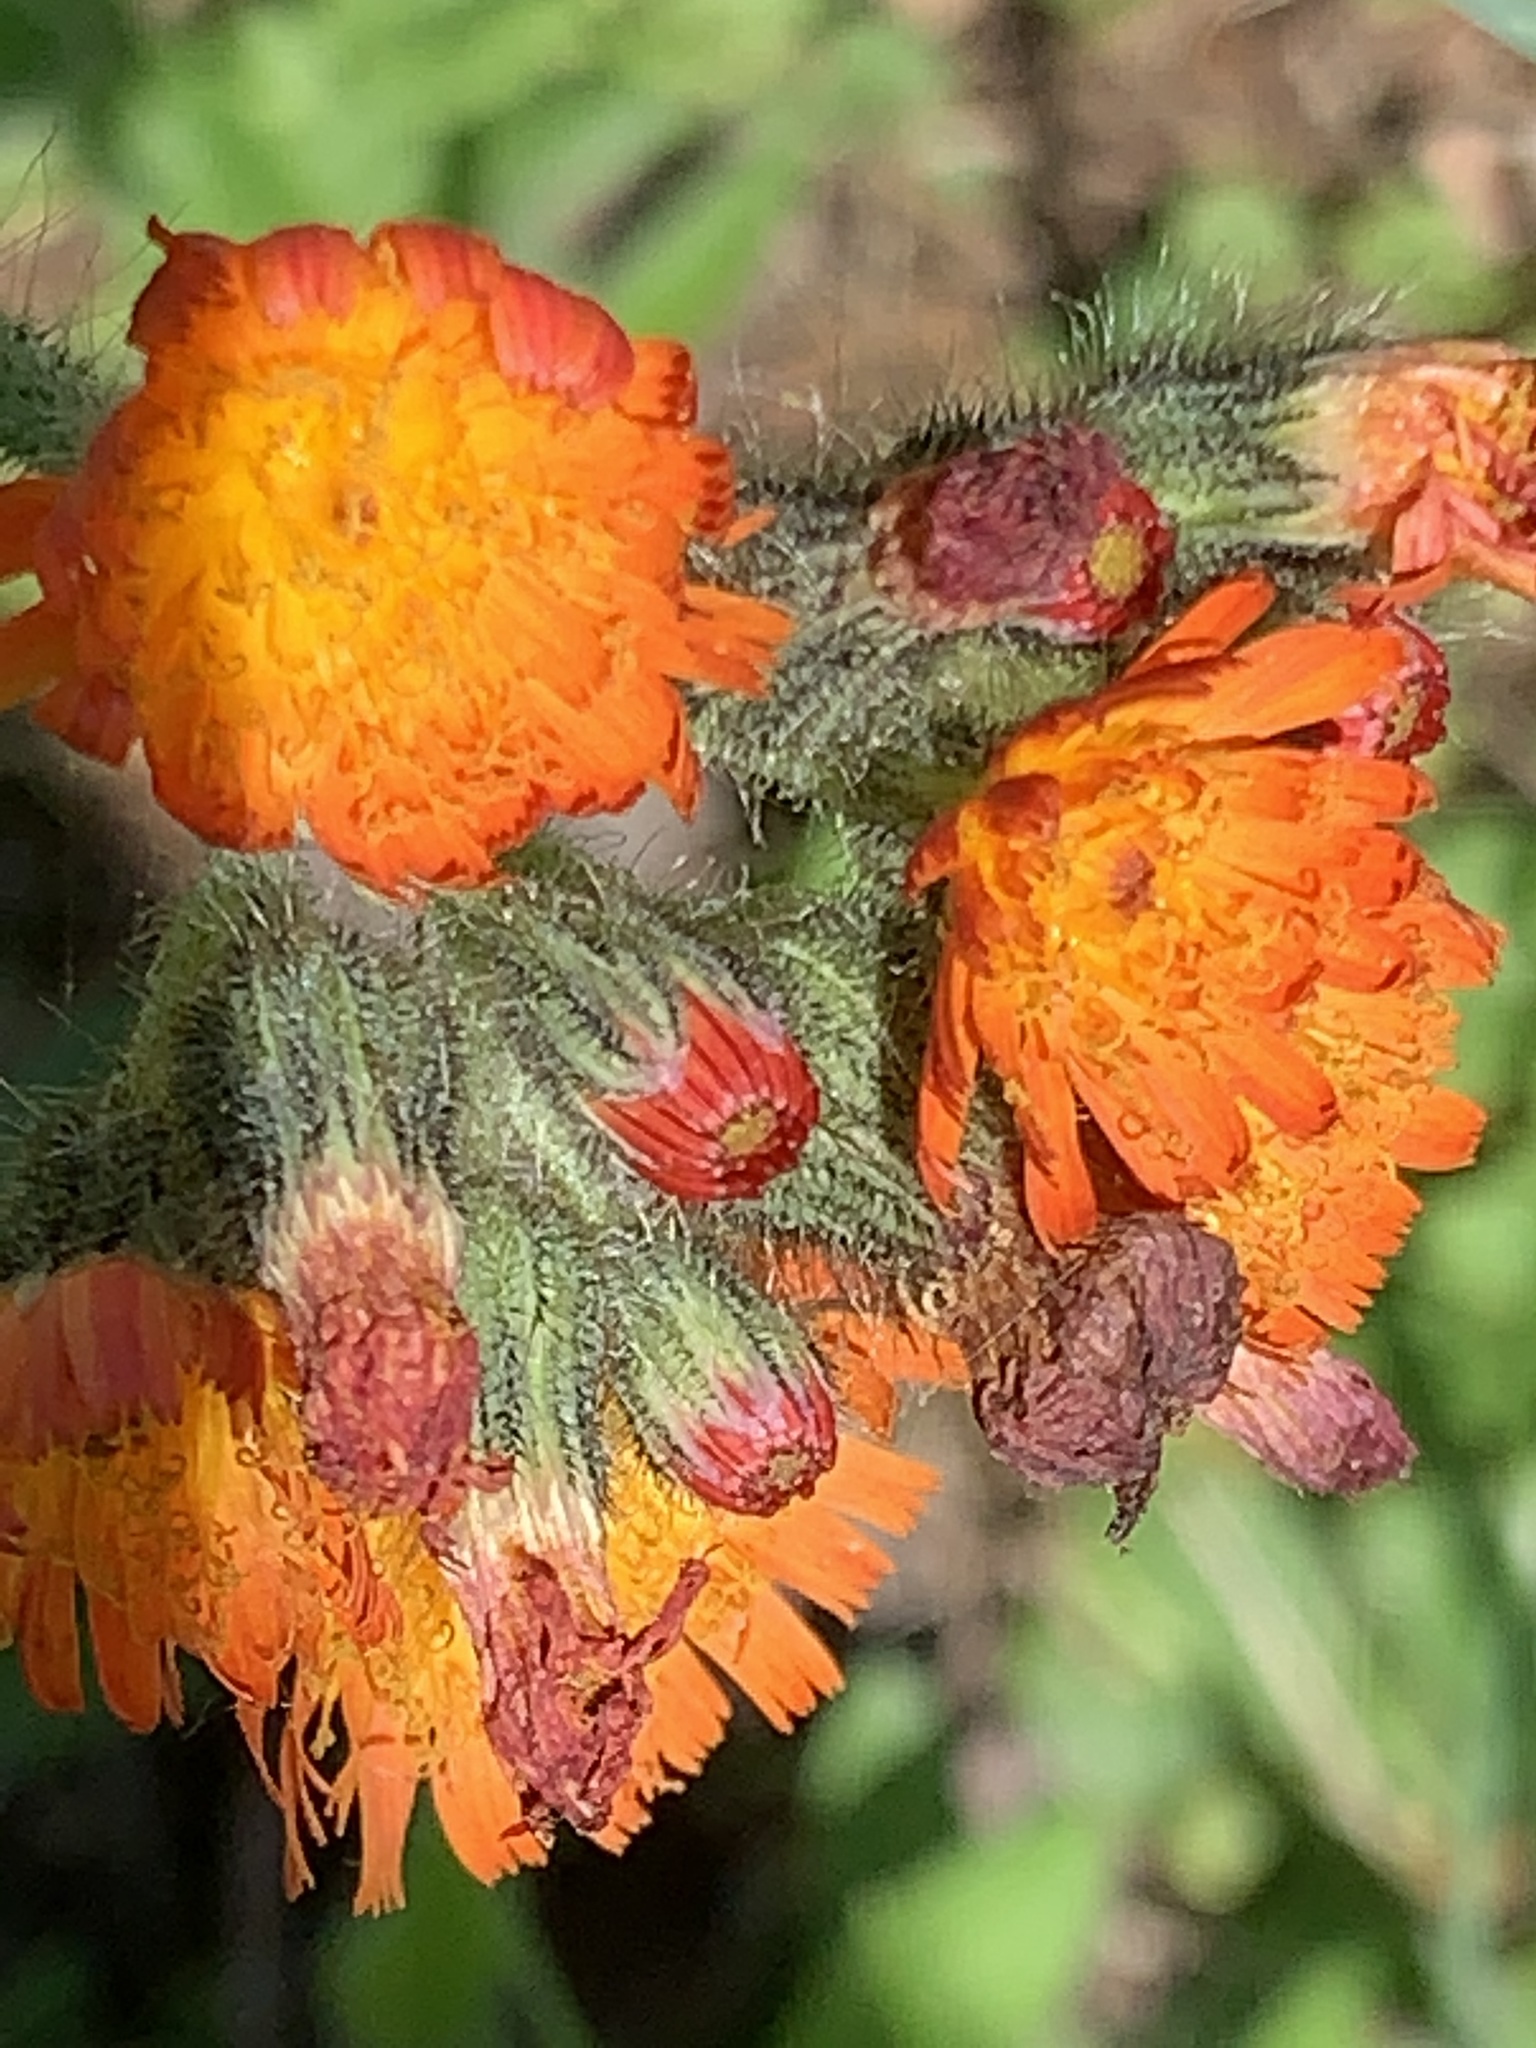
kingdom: Plantae
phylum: Tracheophyta
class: Magnoliopsida
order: Asterales
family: Asteraceae
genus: Pilosella
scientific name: Pilosella aurantiaca
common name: Fox-and-cubs
